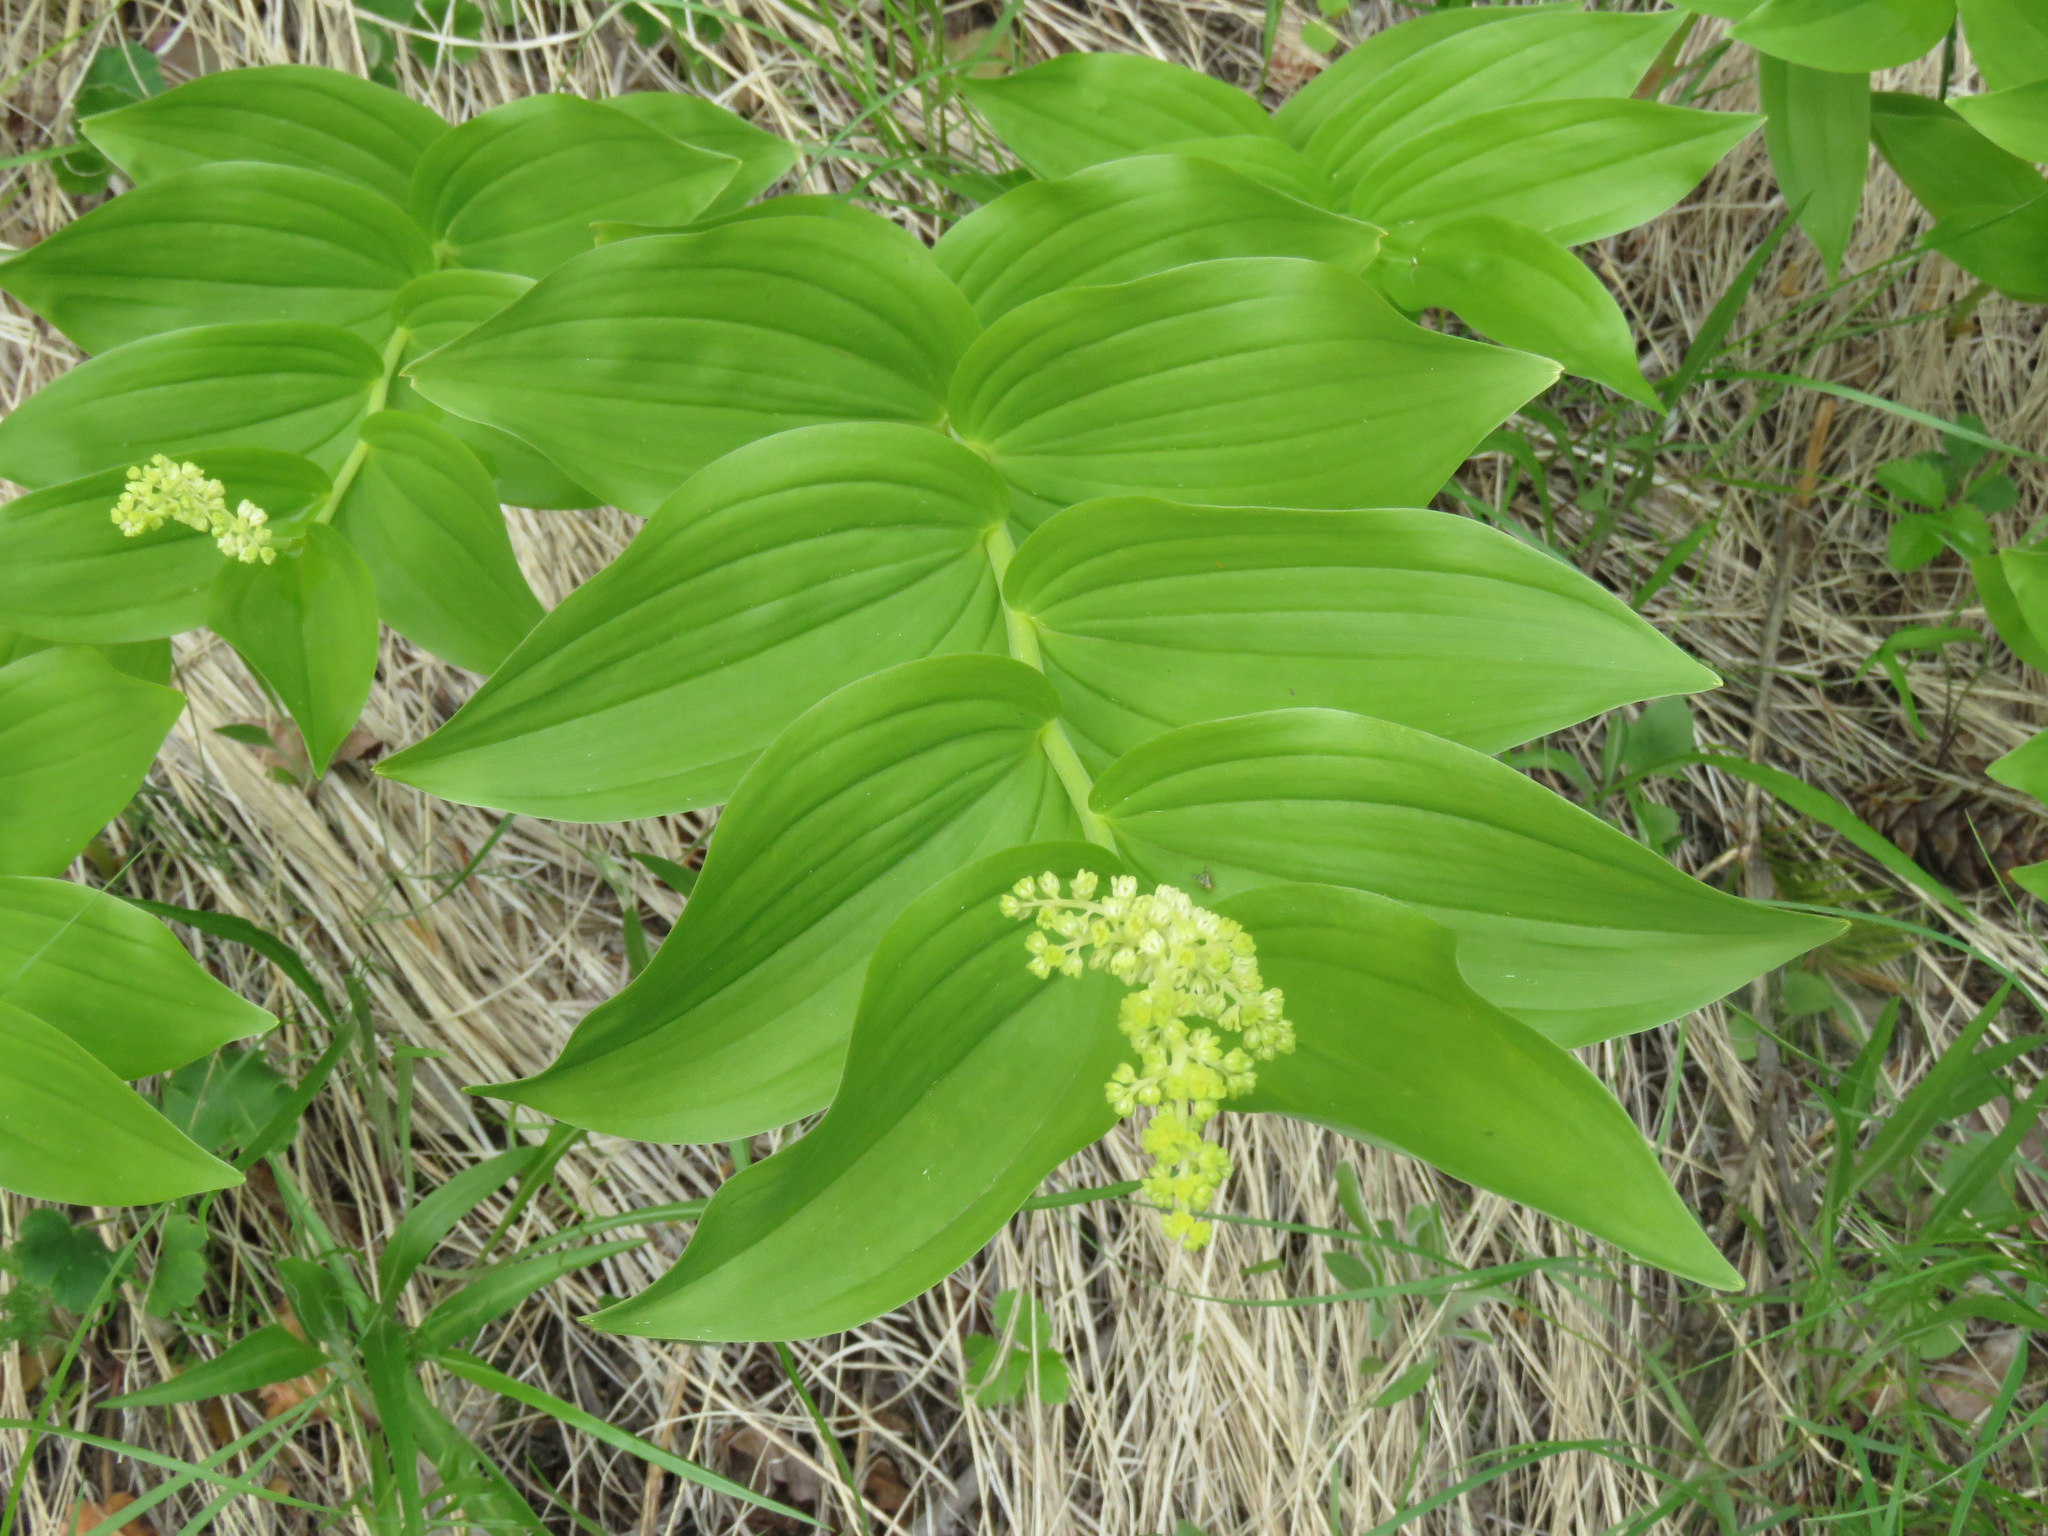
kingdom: Plantae
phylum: Tracheophyta
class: Liliopsida
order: Asparagales
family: Asparagaceae
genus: Maianthemum
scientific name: Maianthemum racemosum
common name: False spikenard
